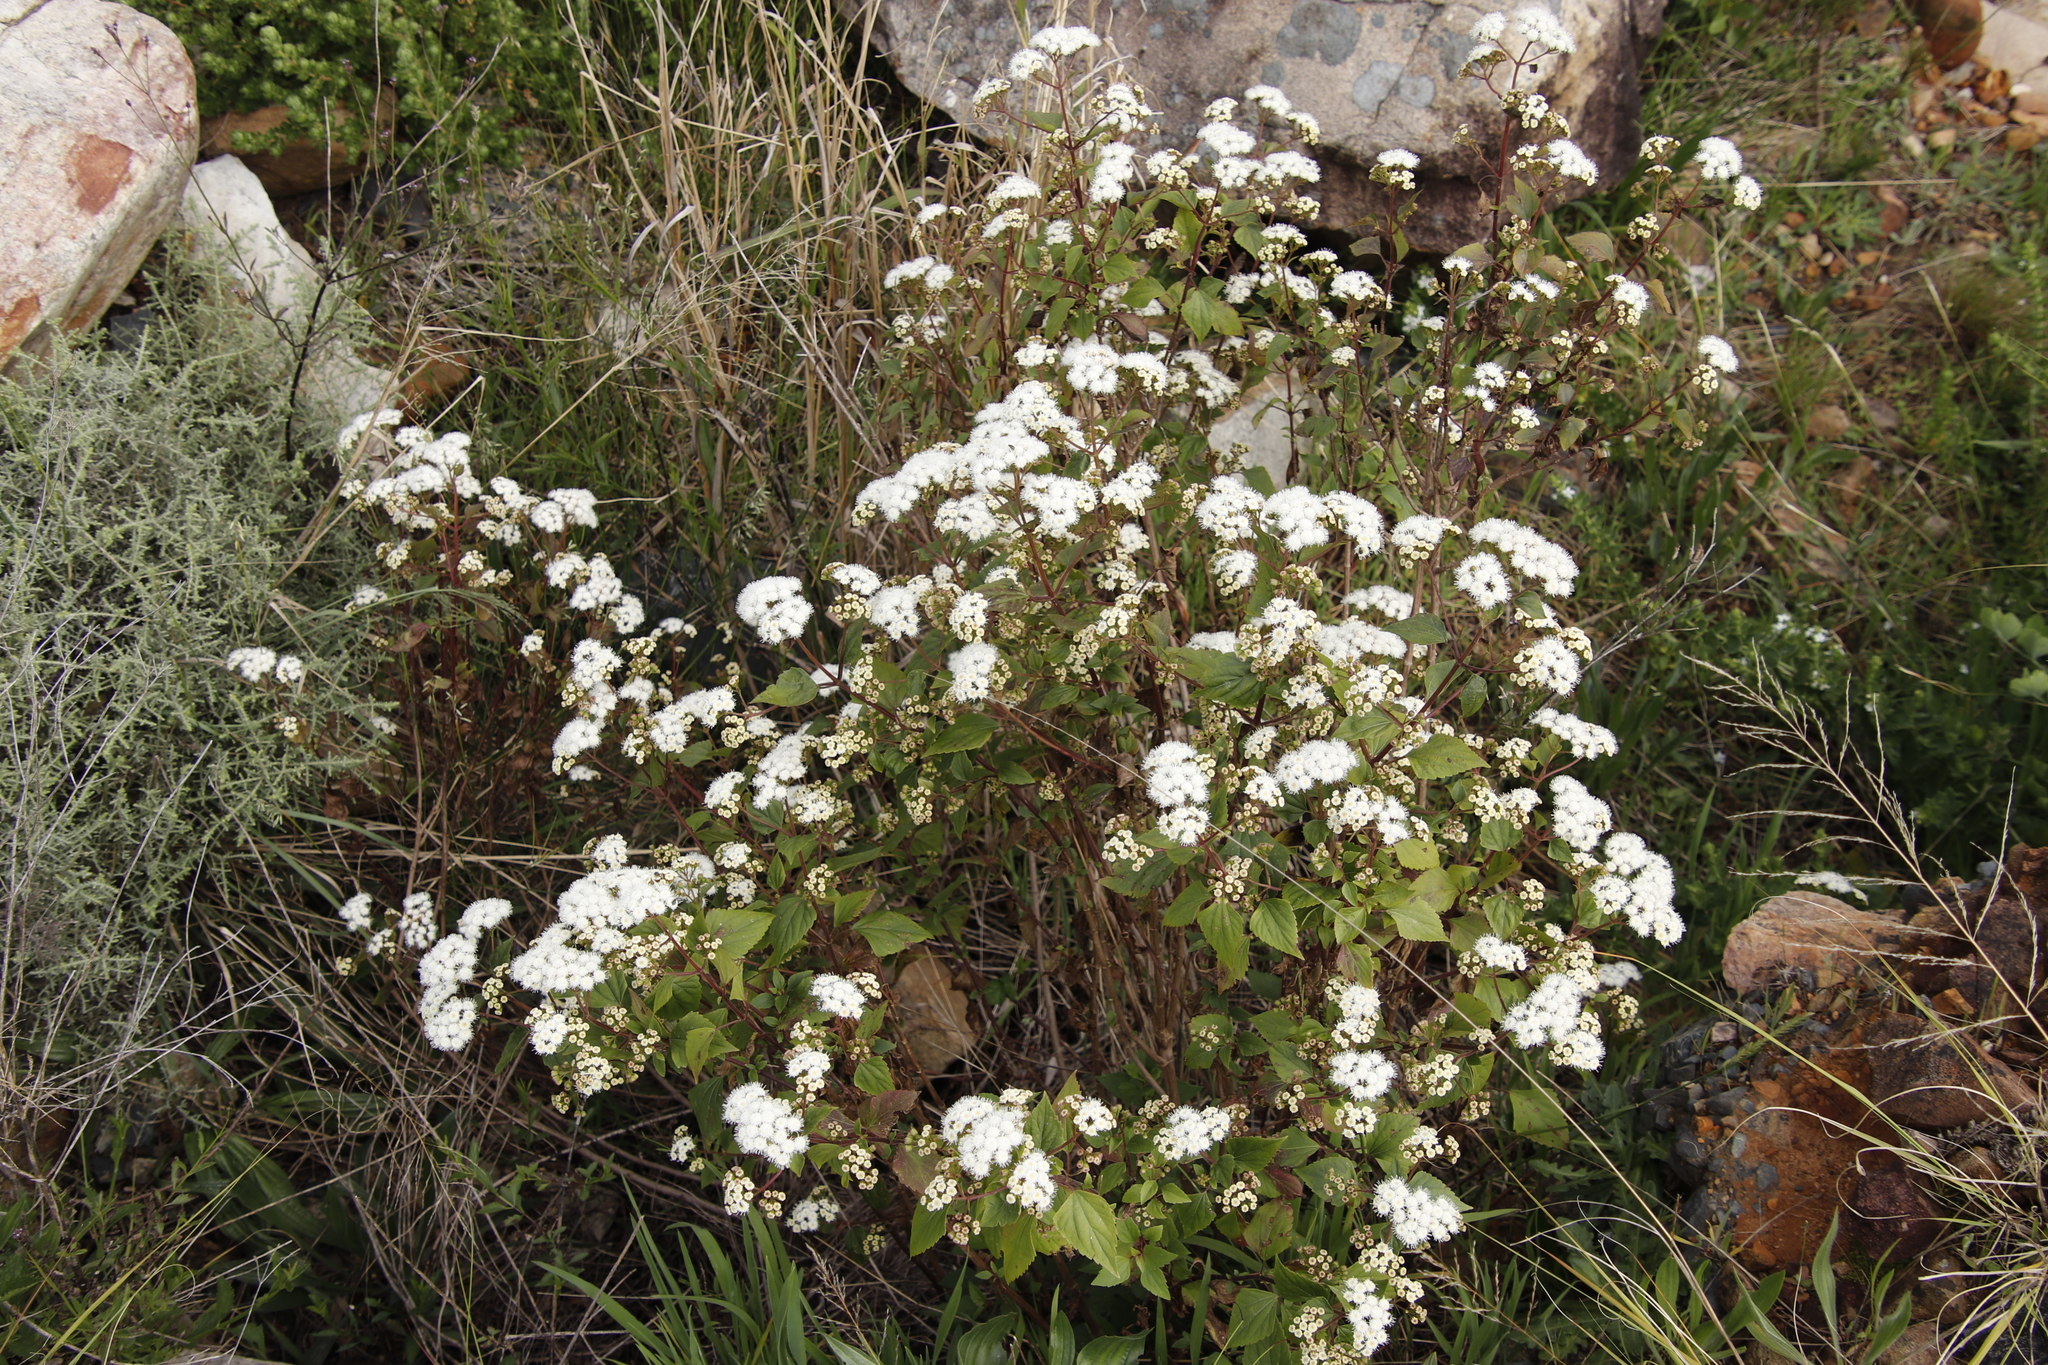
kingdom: Plantae
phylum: Tracheophyta
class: Magnoliopsida
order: Asterales
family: Asteraceae
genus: Ageratina
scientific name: Ageratina adenophora
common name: Sticky snakeroot
